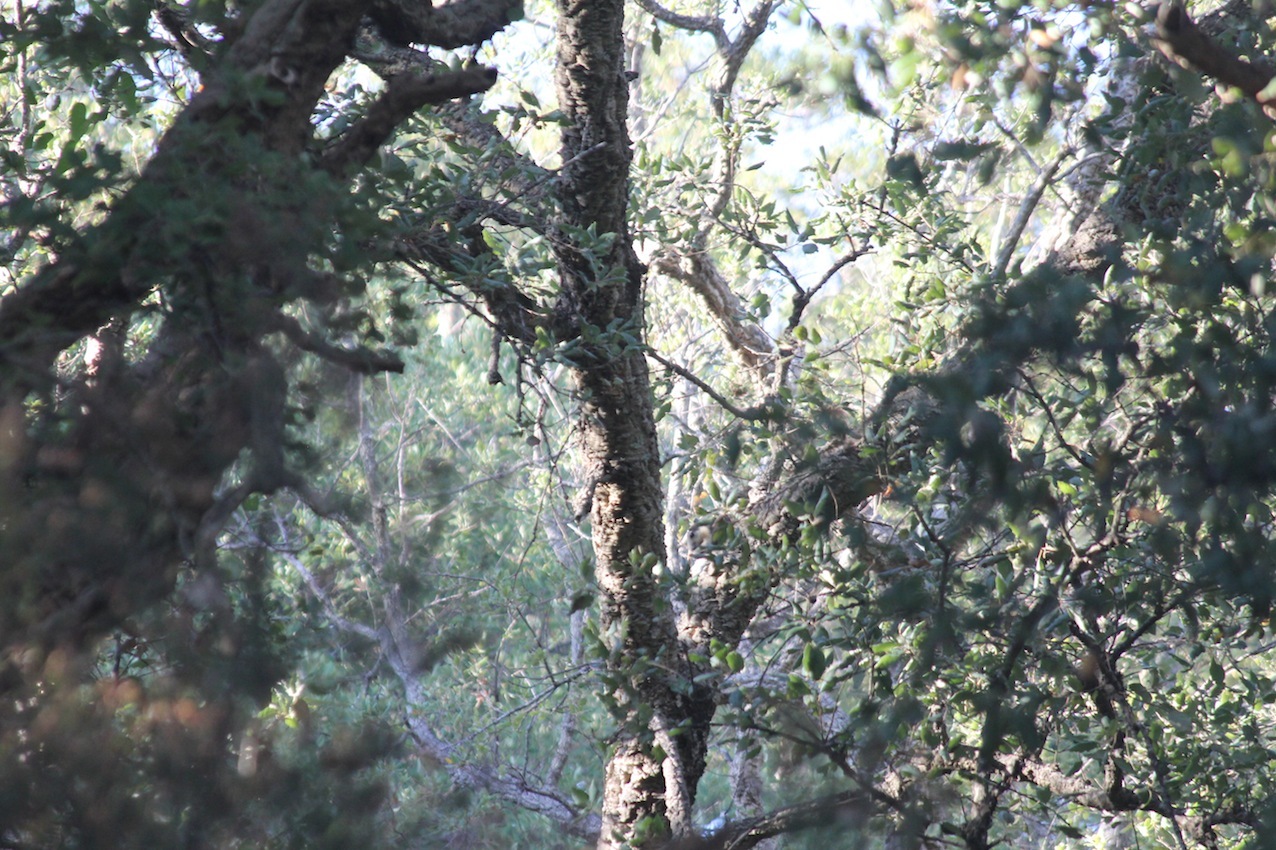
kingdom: Animalia
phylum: Chordata
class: Mammalia
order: Rodentia
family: Sciuridae
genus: Callosciurus
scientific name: Callosciurus finlaysonii
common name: Finlayson's squirrel
